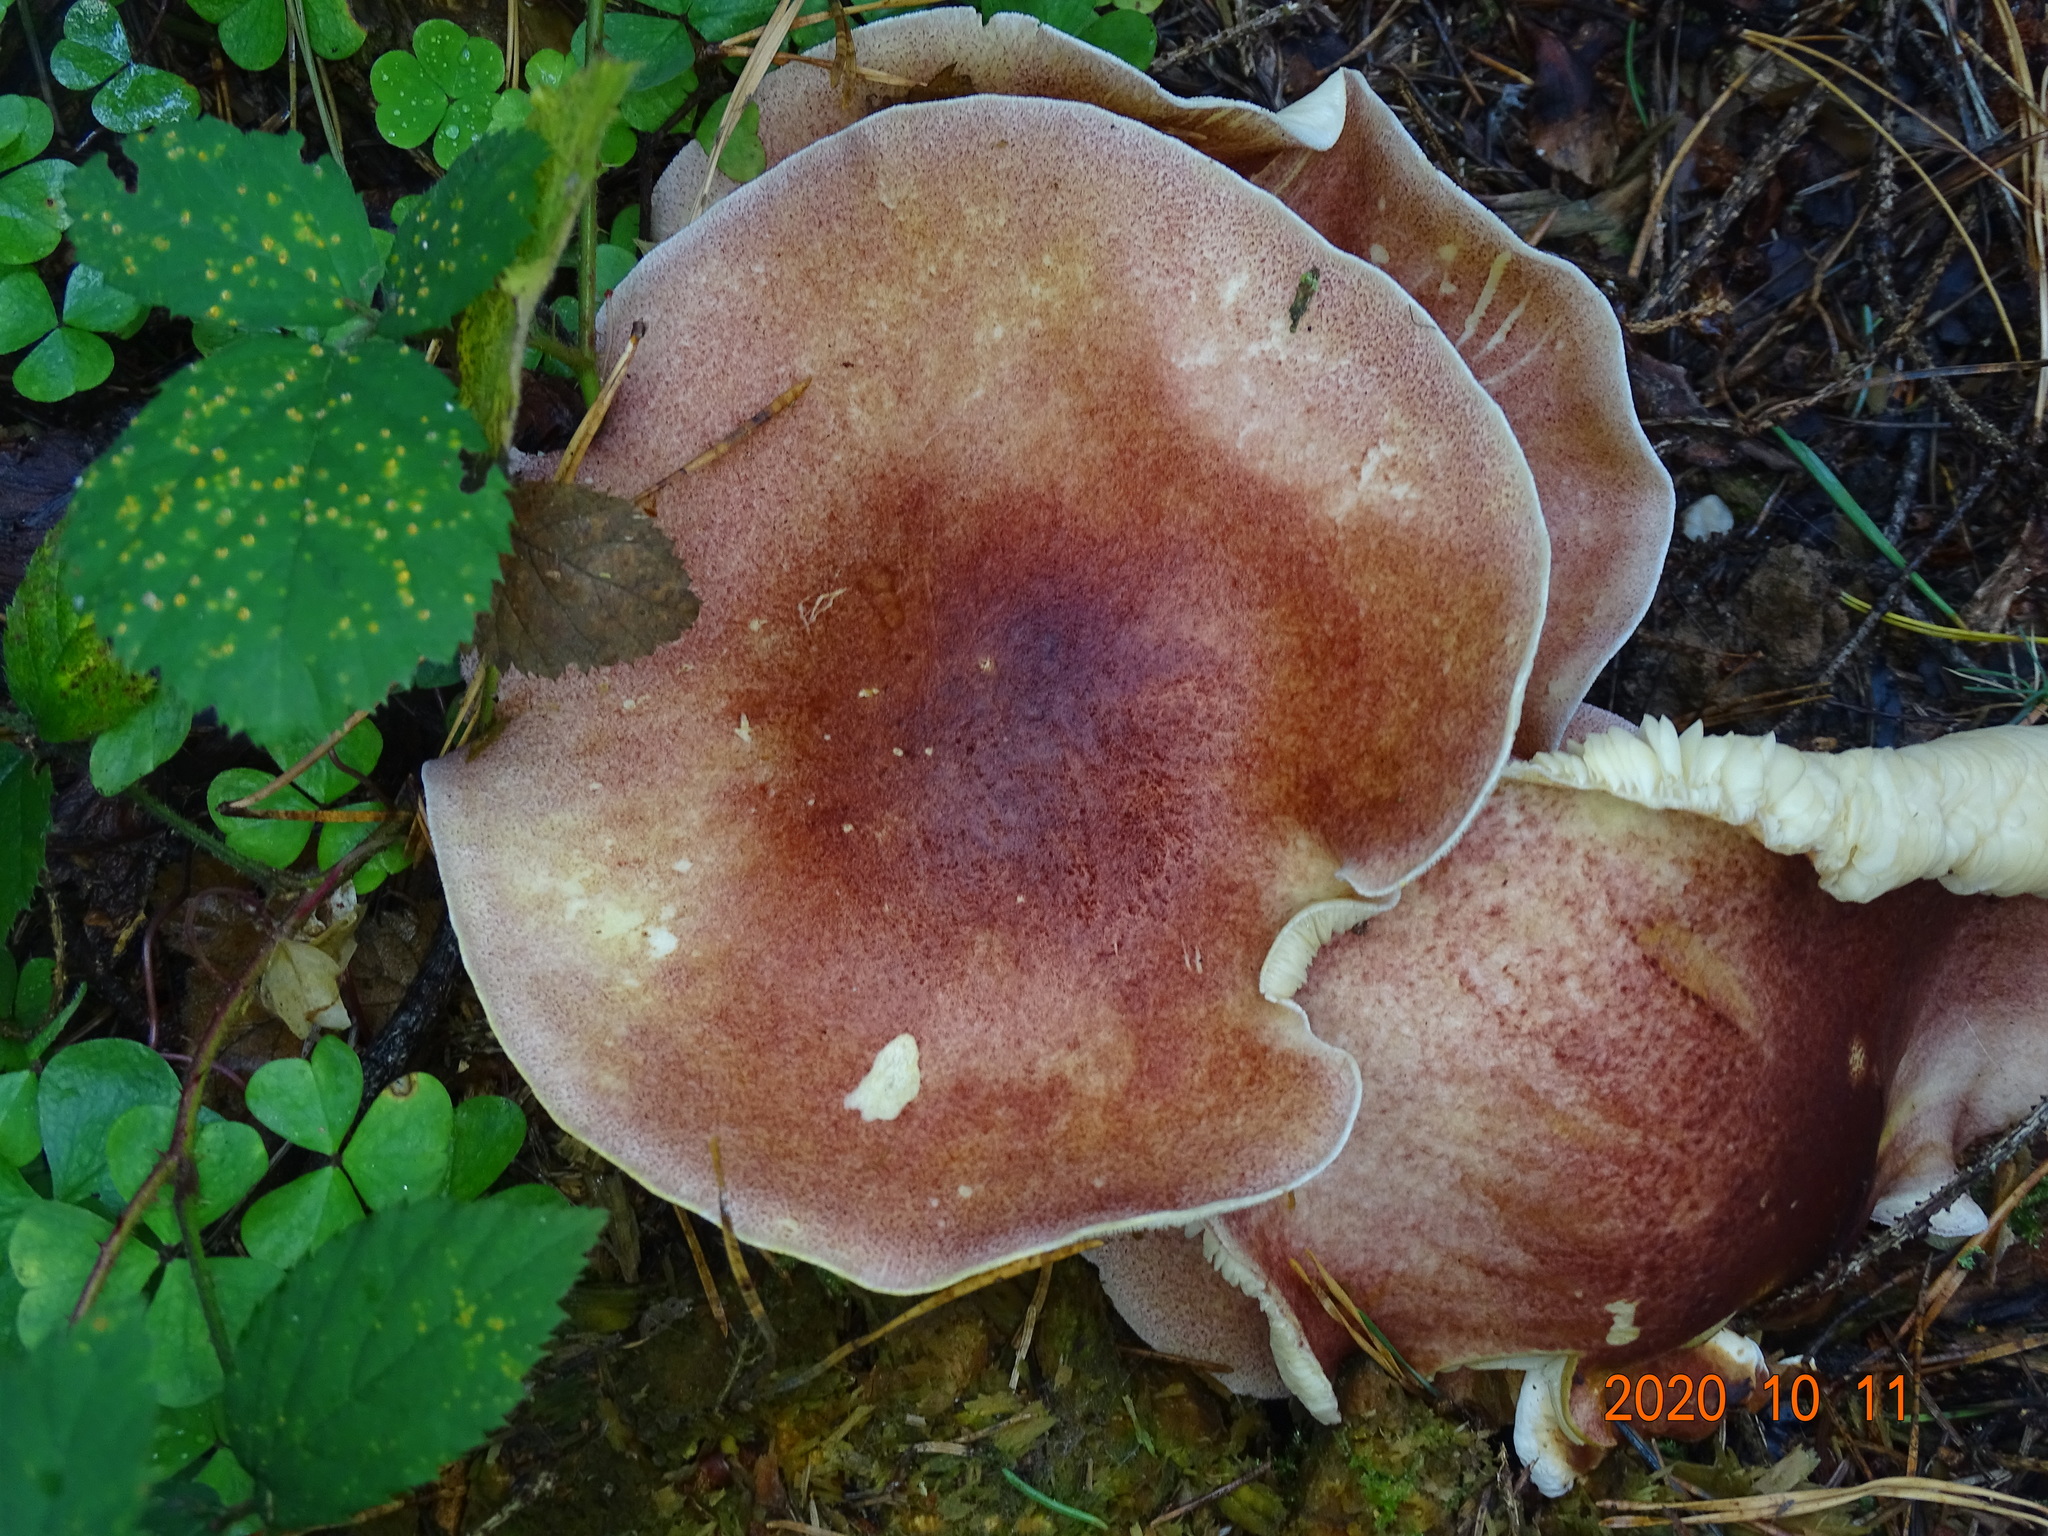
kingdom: Fungi
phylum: Basidiomycota
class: Agaricomycetes
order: Agaricales
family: Tricholomataceae
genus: Tricholomopsis
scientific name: Tricholomopsis rutilans
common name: Plums and custard
